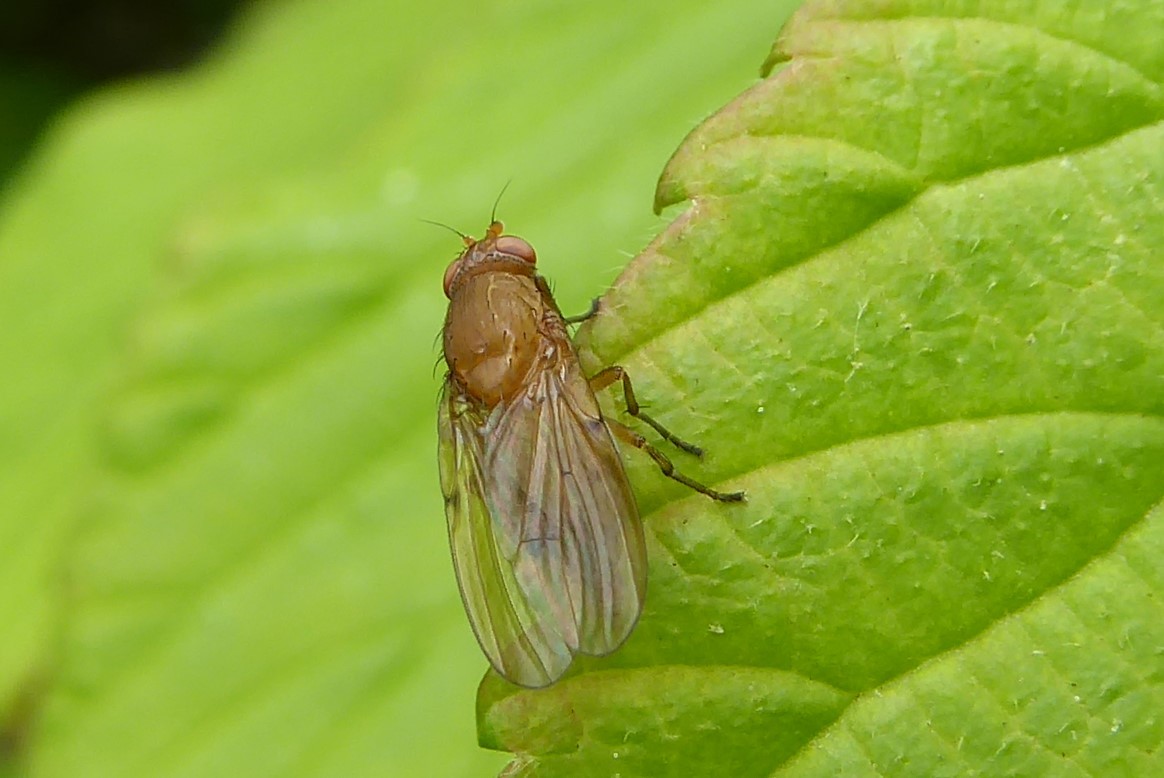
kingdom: Animalia
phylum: Arthropoda
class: Insecta
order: Diptera
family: Lauxaniidae
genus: Sapromyza
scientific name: Sapromyza simillima
